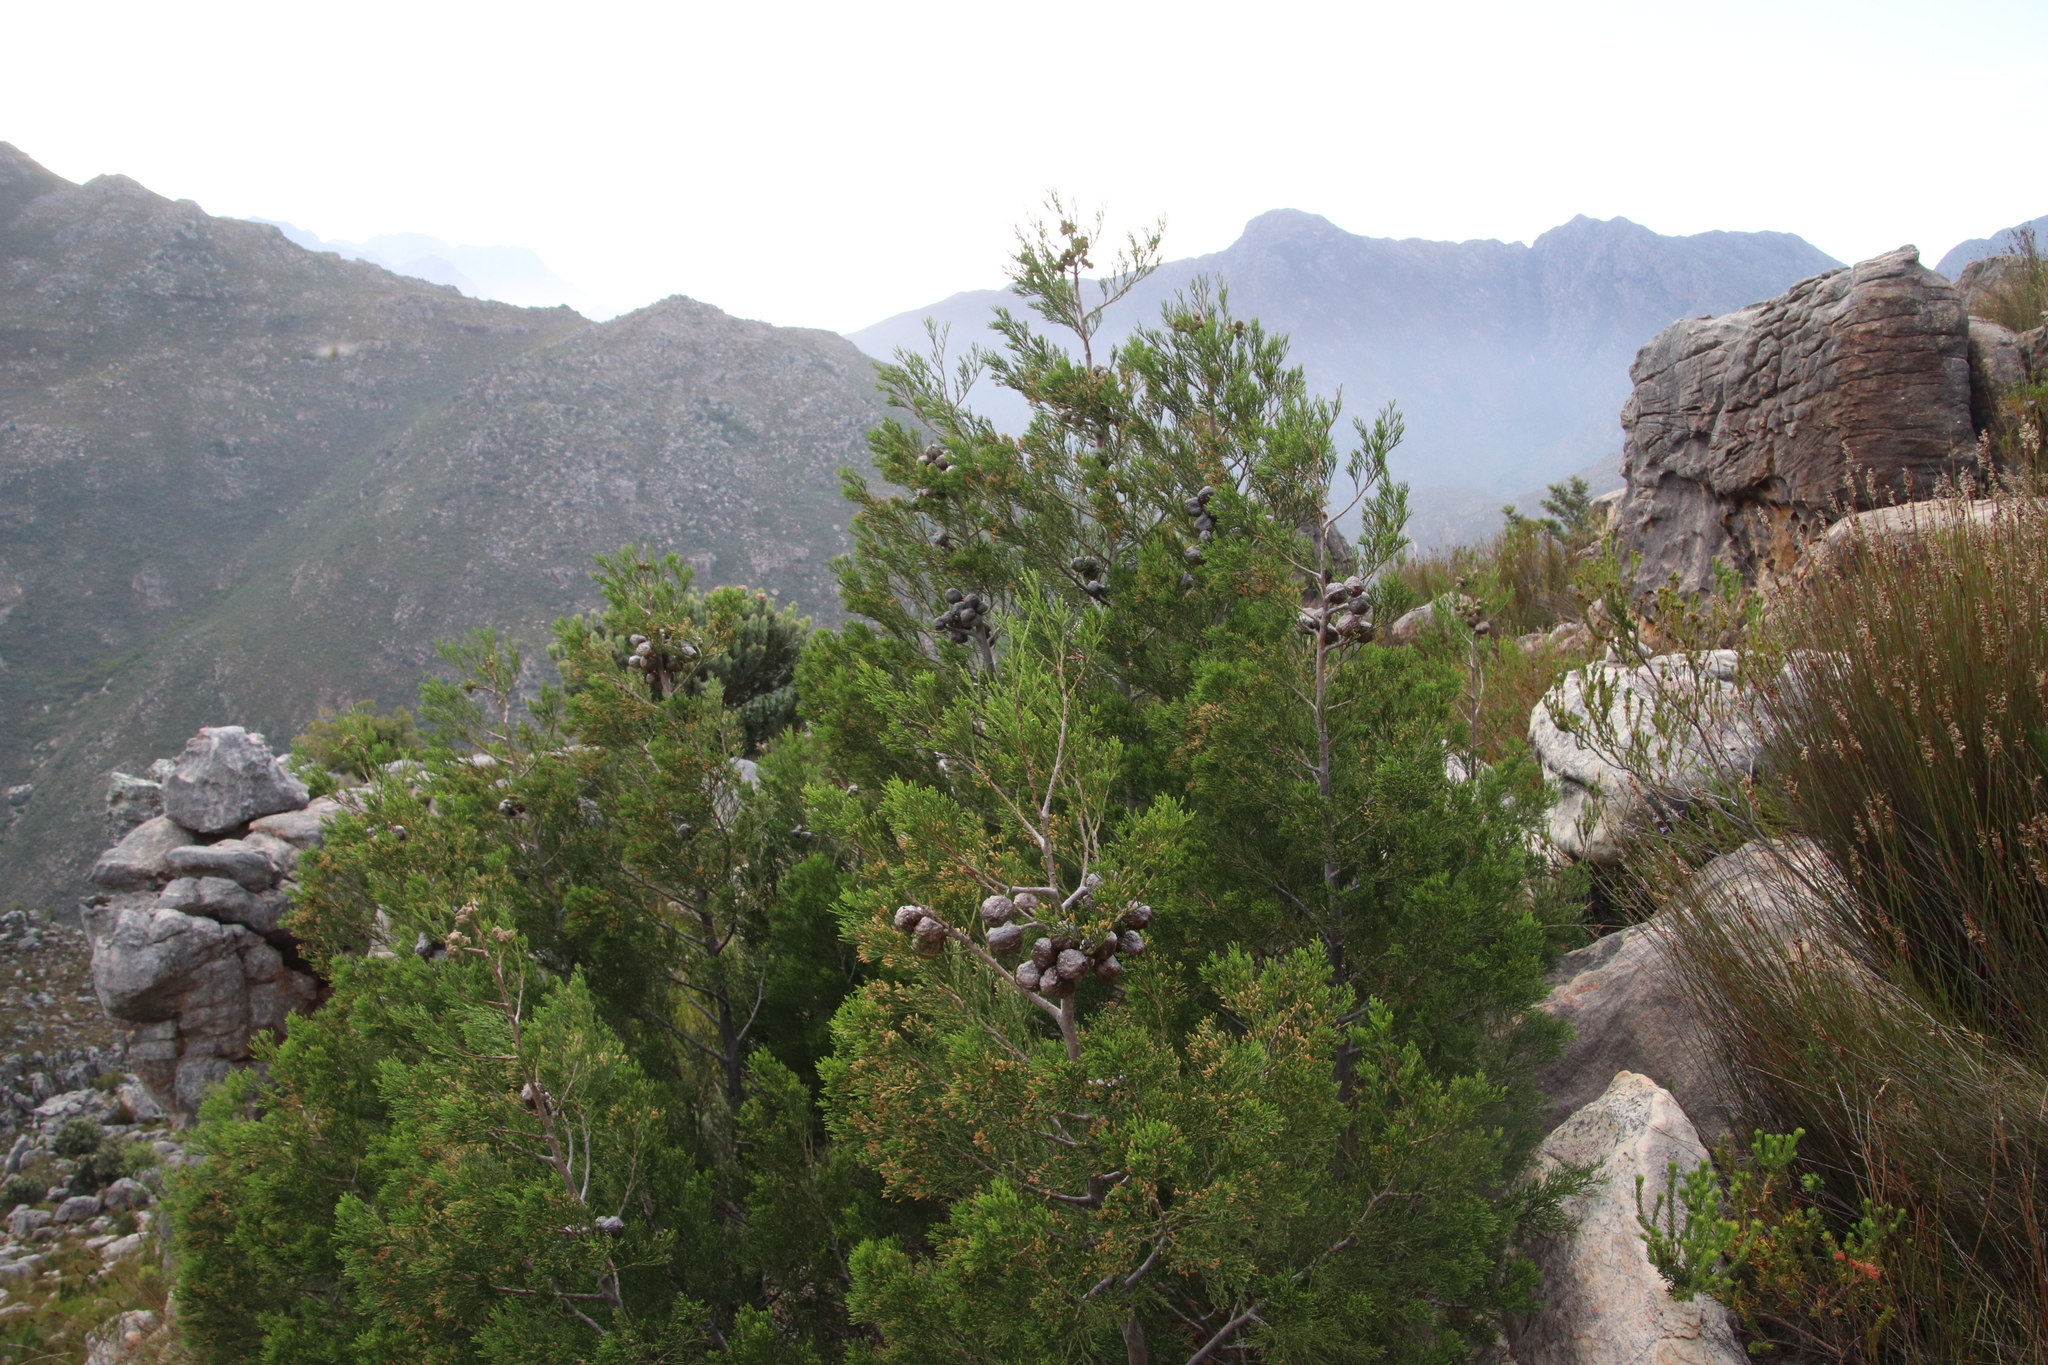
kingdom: Plantae
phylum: Tracheophyta
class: Pinopsida
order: Pinales
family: Cupressaceae
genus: Widdringtonia
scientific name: Widdringtonia nodiflora
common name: Cape cypress
